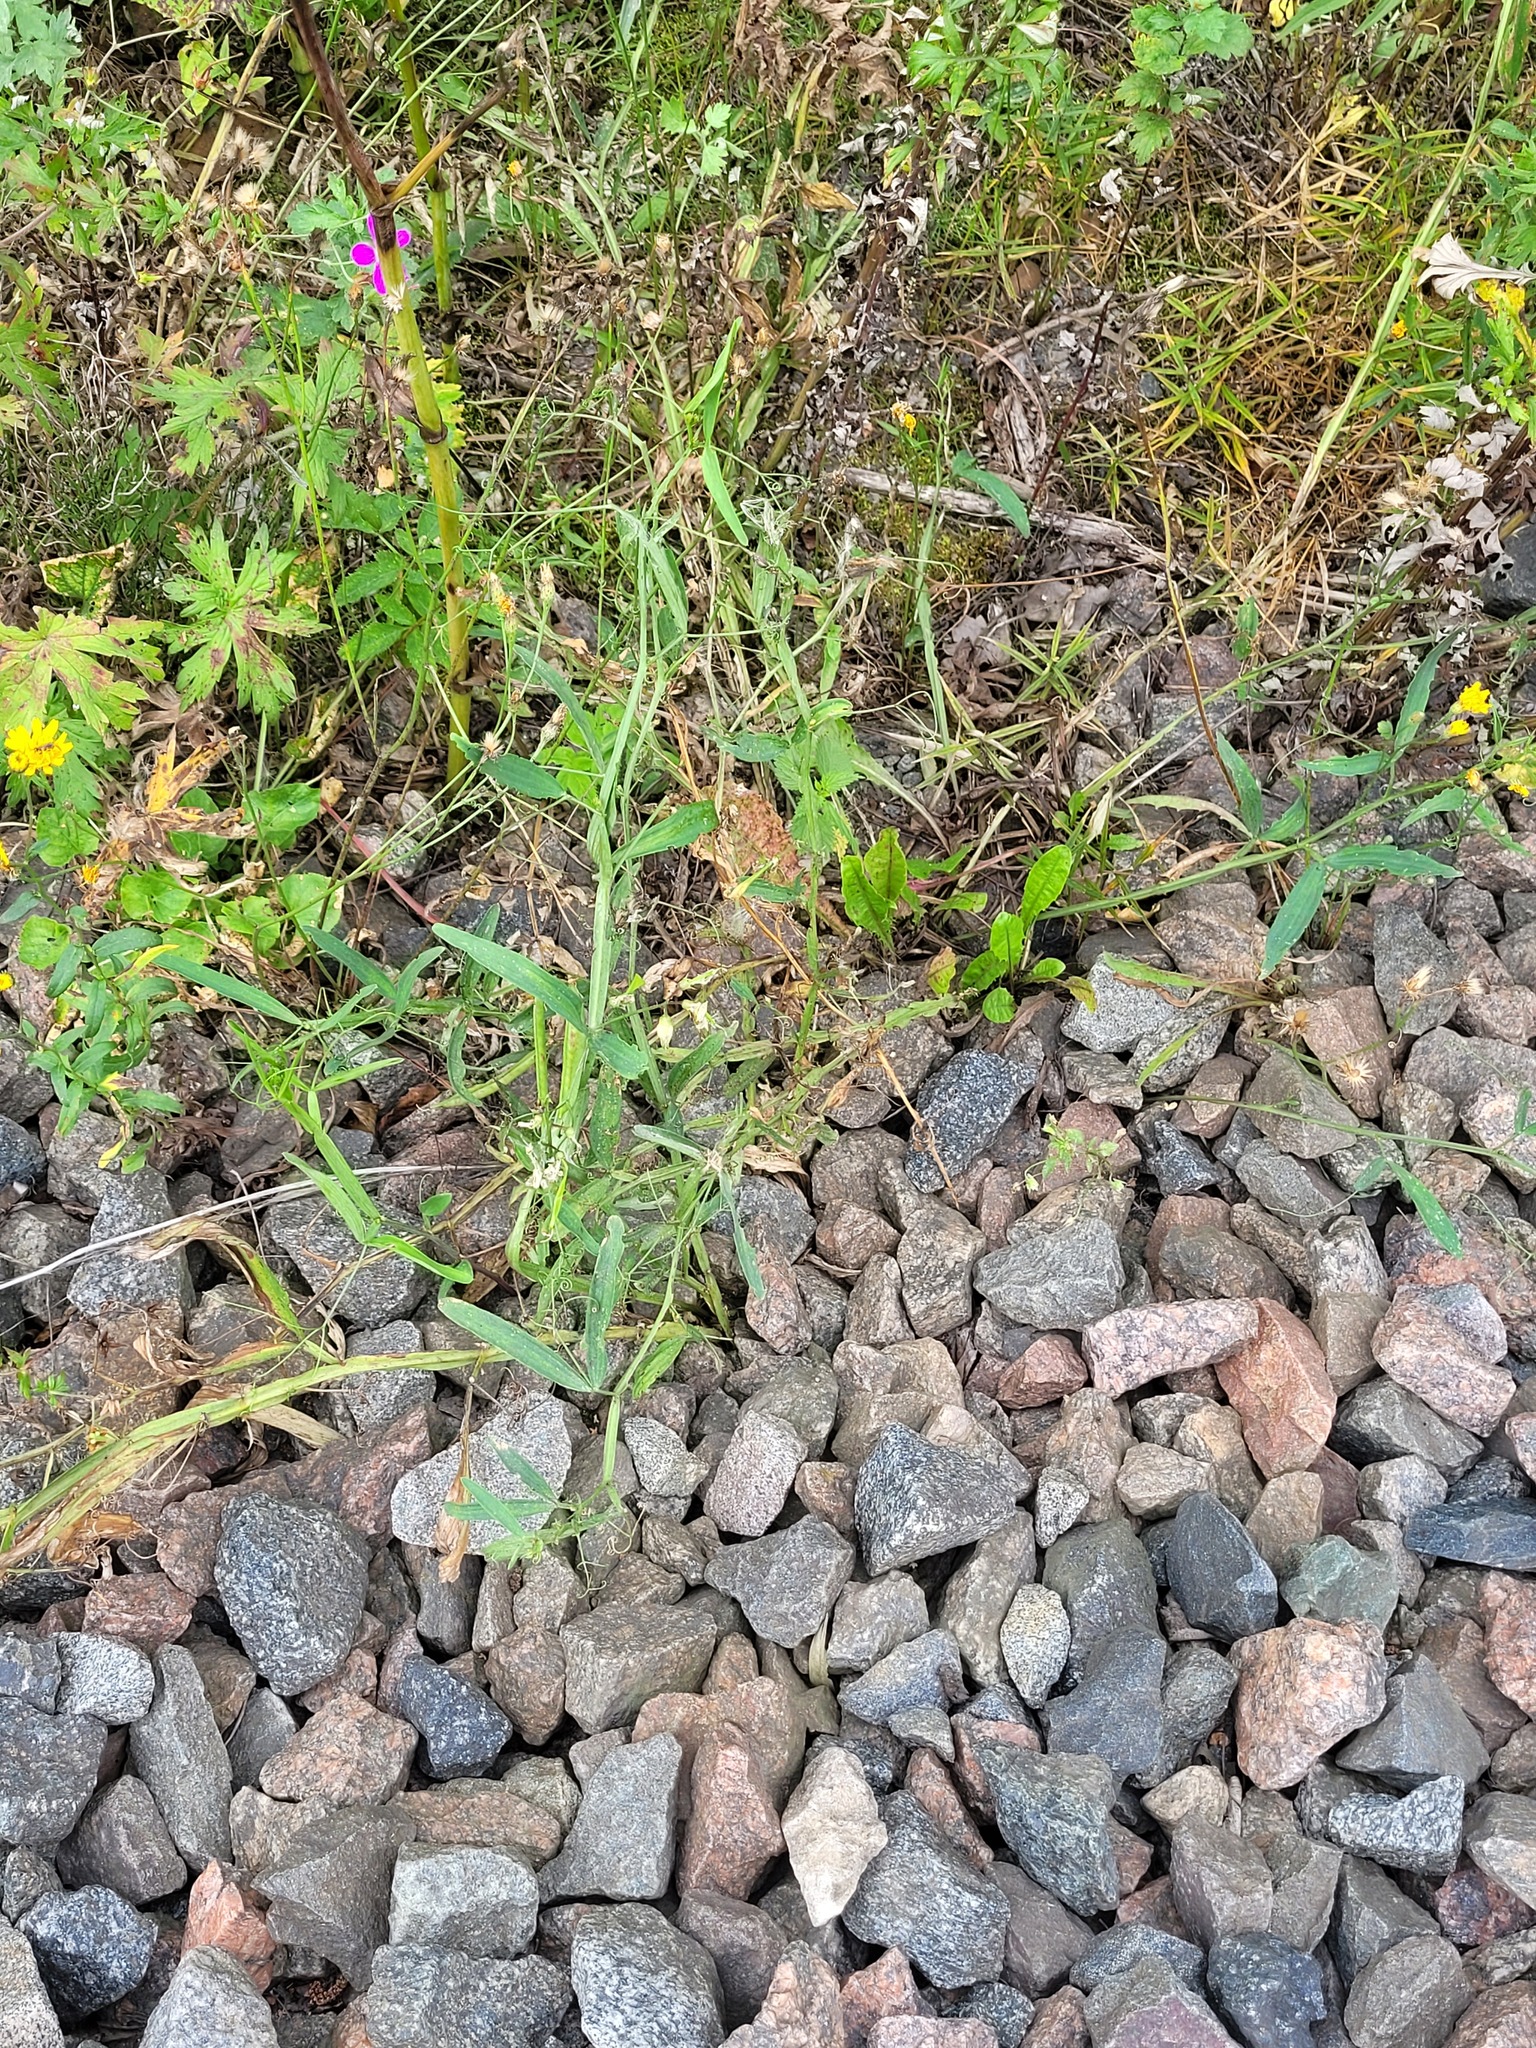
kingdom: Plantae
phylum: Tracheophyta
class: Magnoliopsida
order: Fabales
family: Fabaceae
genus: Lathyrus
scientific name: Lathyrus sylvestris
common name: Flat pea
